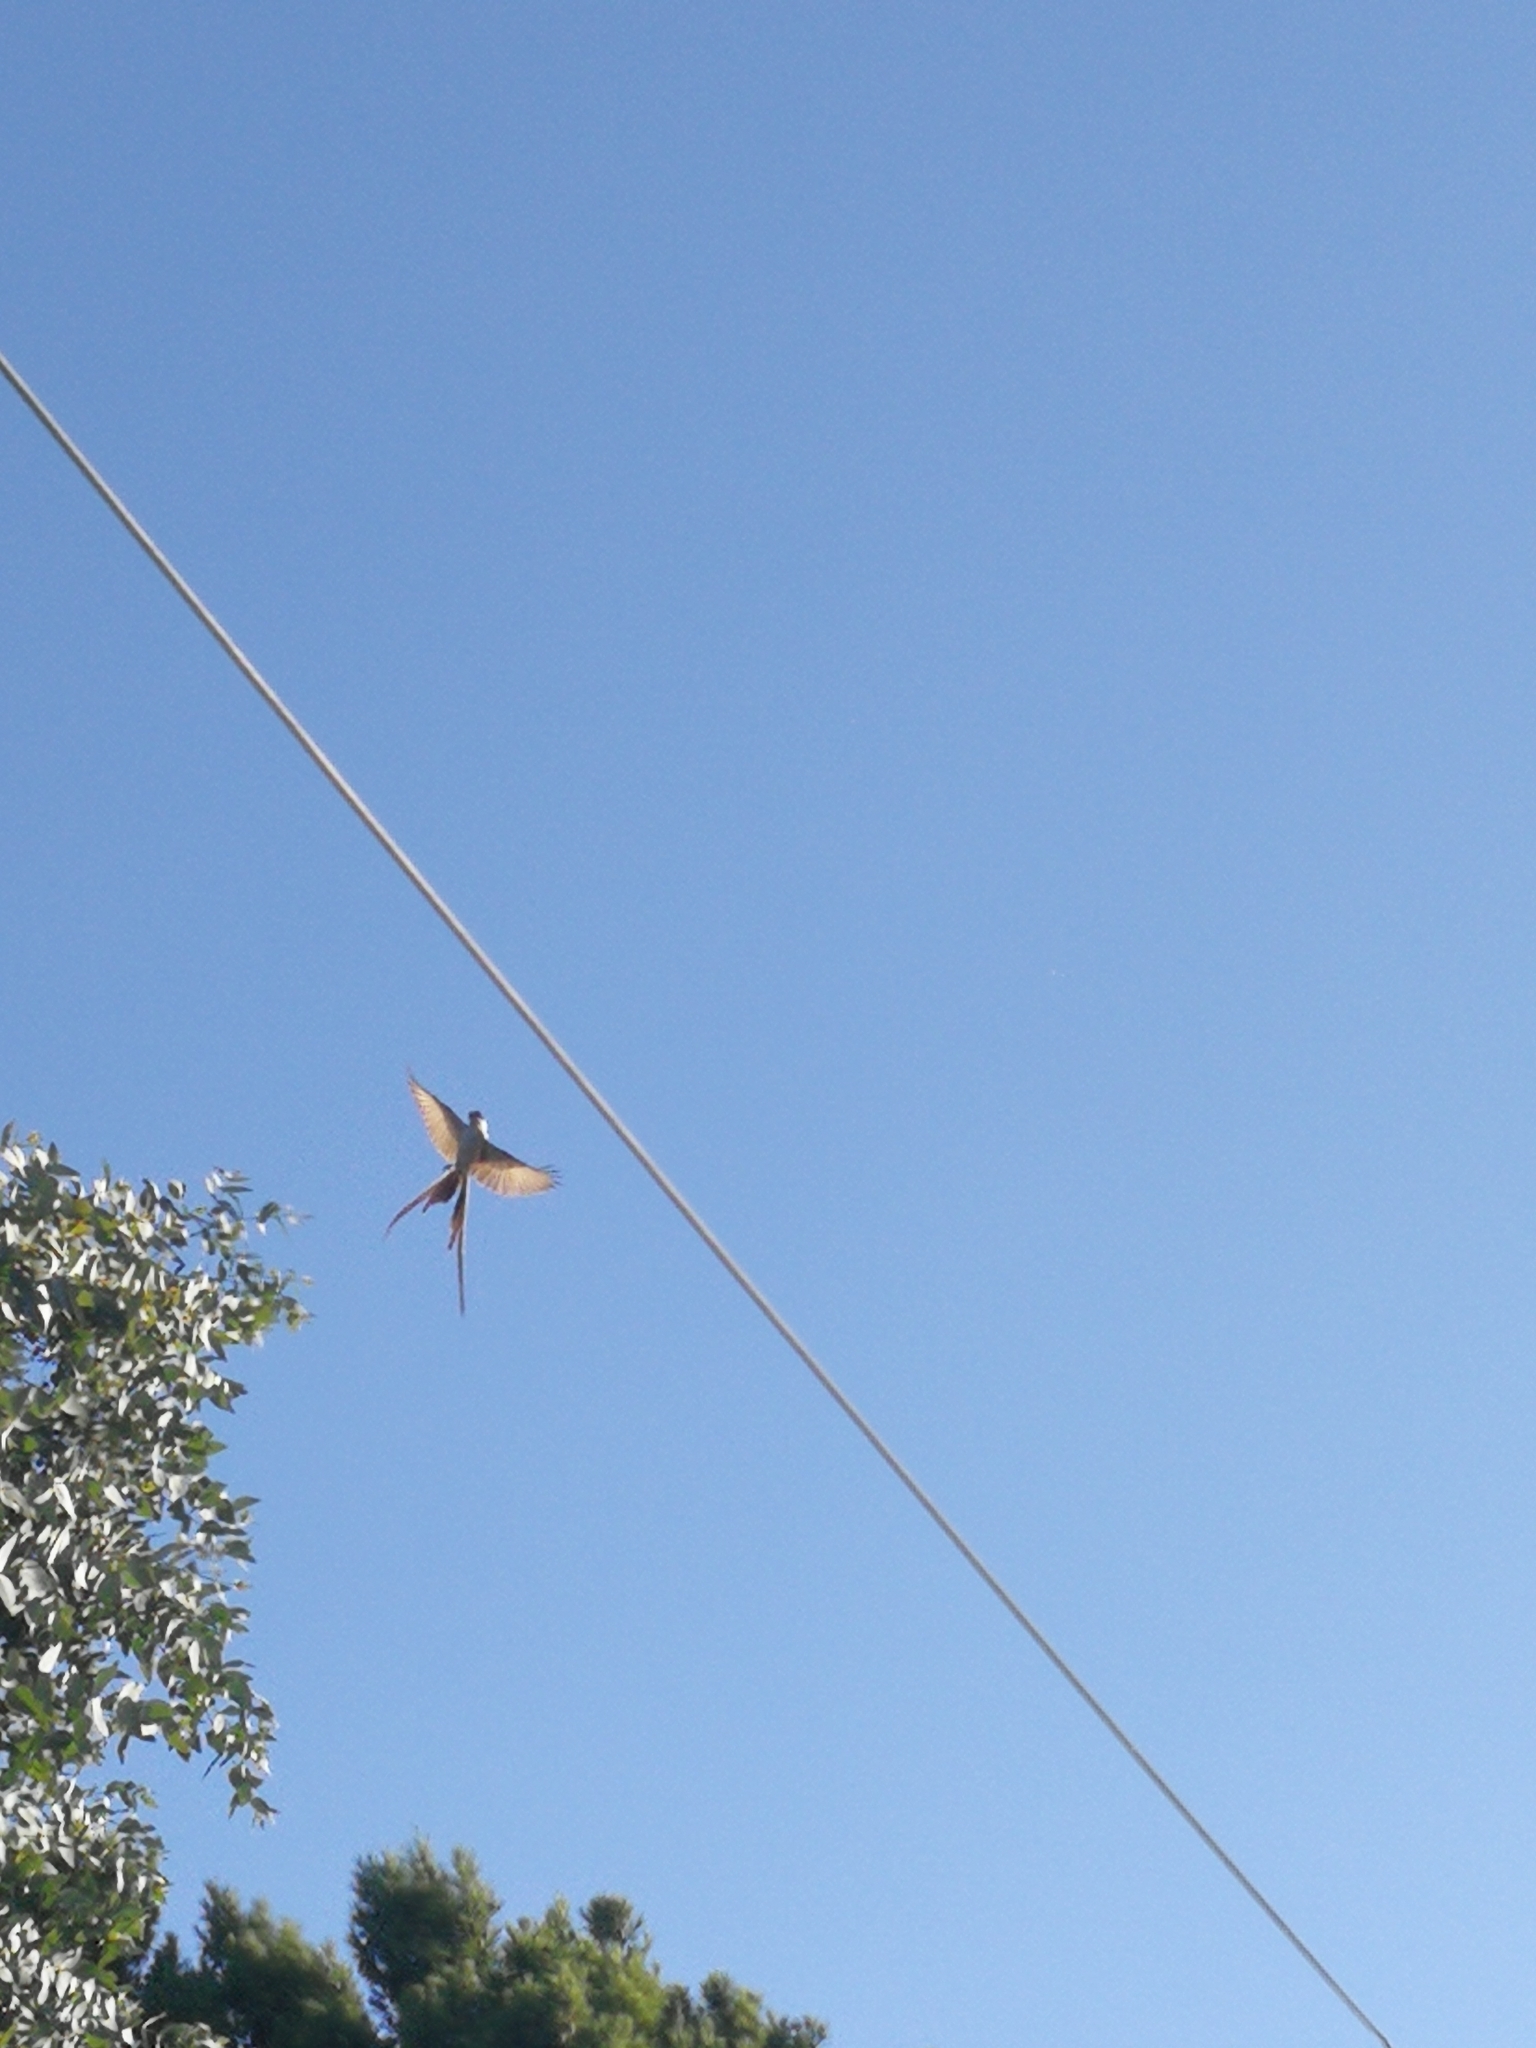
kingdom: Animalia
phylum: Chordata
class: Aves
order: Passeriformes
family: Tyrannidae
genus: Tyrannus
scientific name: Tyrannus savana
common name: Fork-tailed flycatcher
